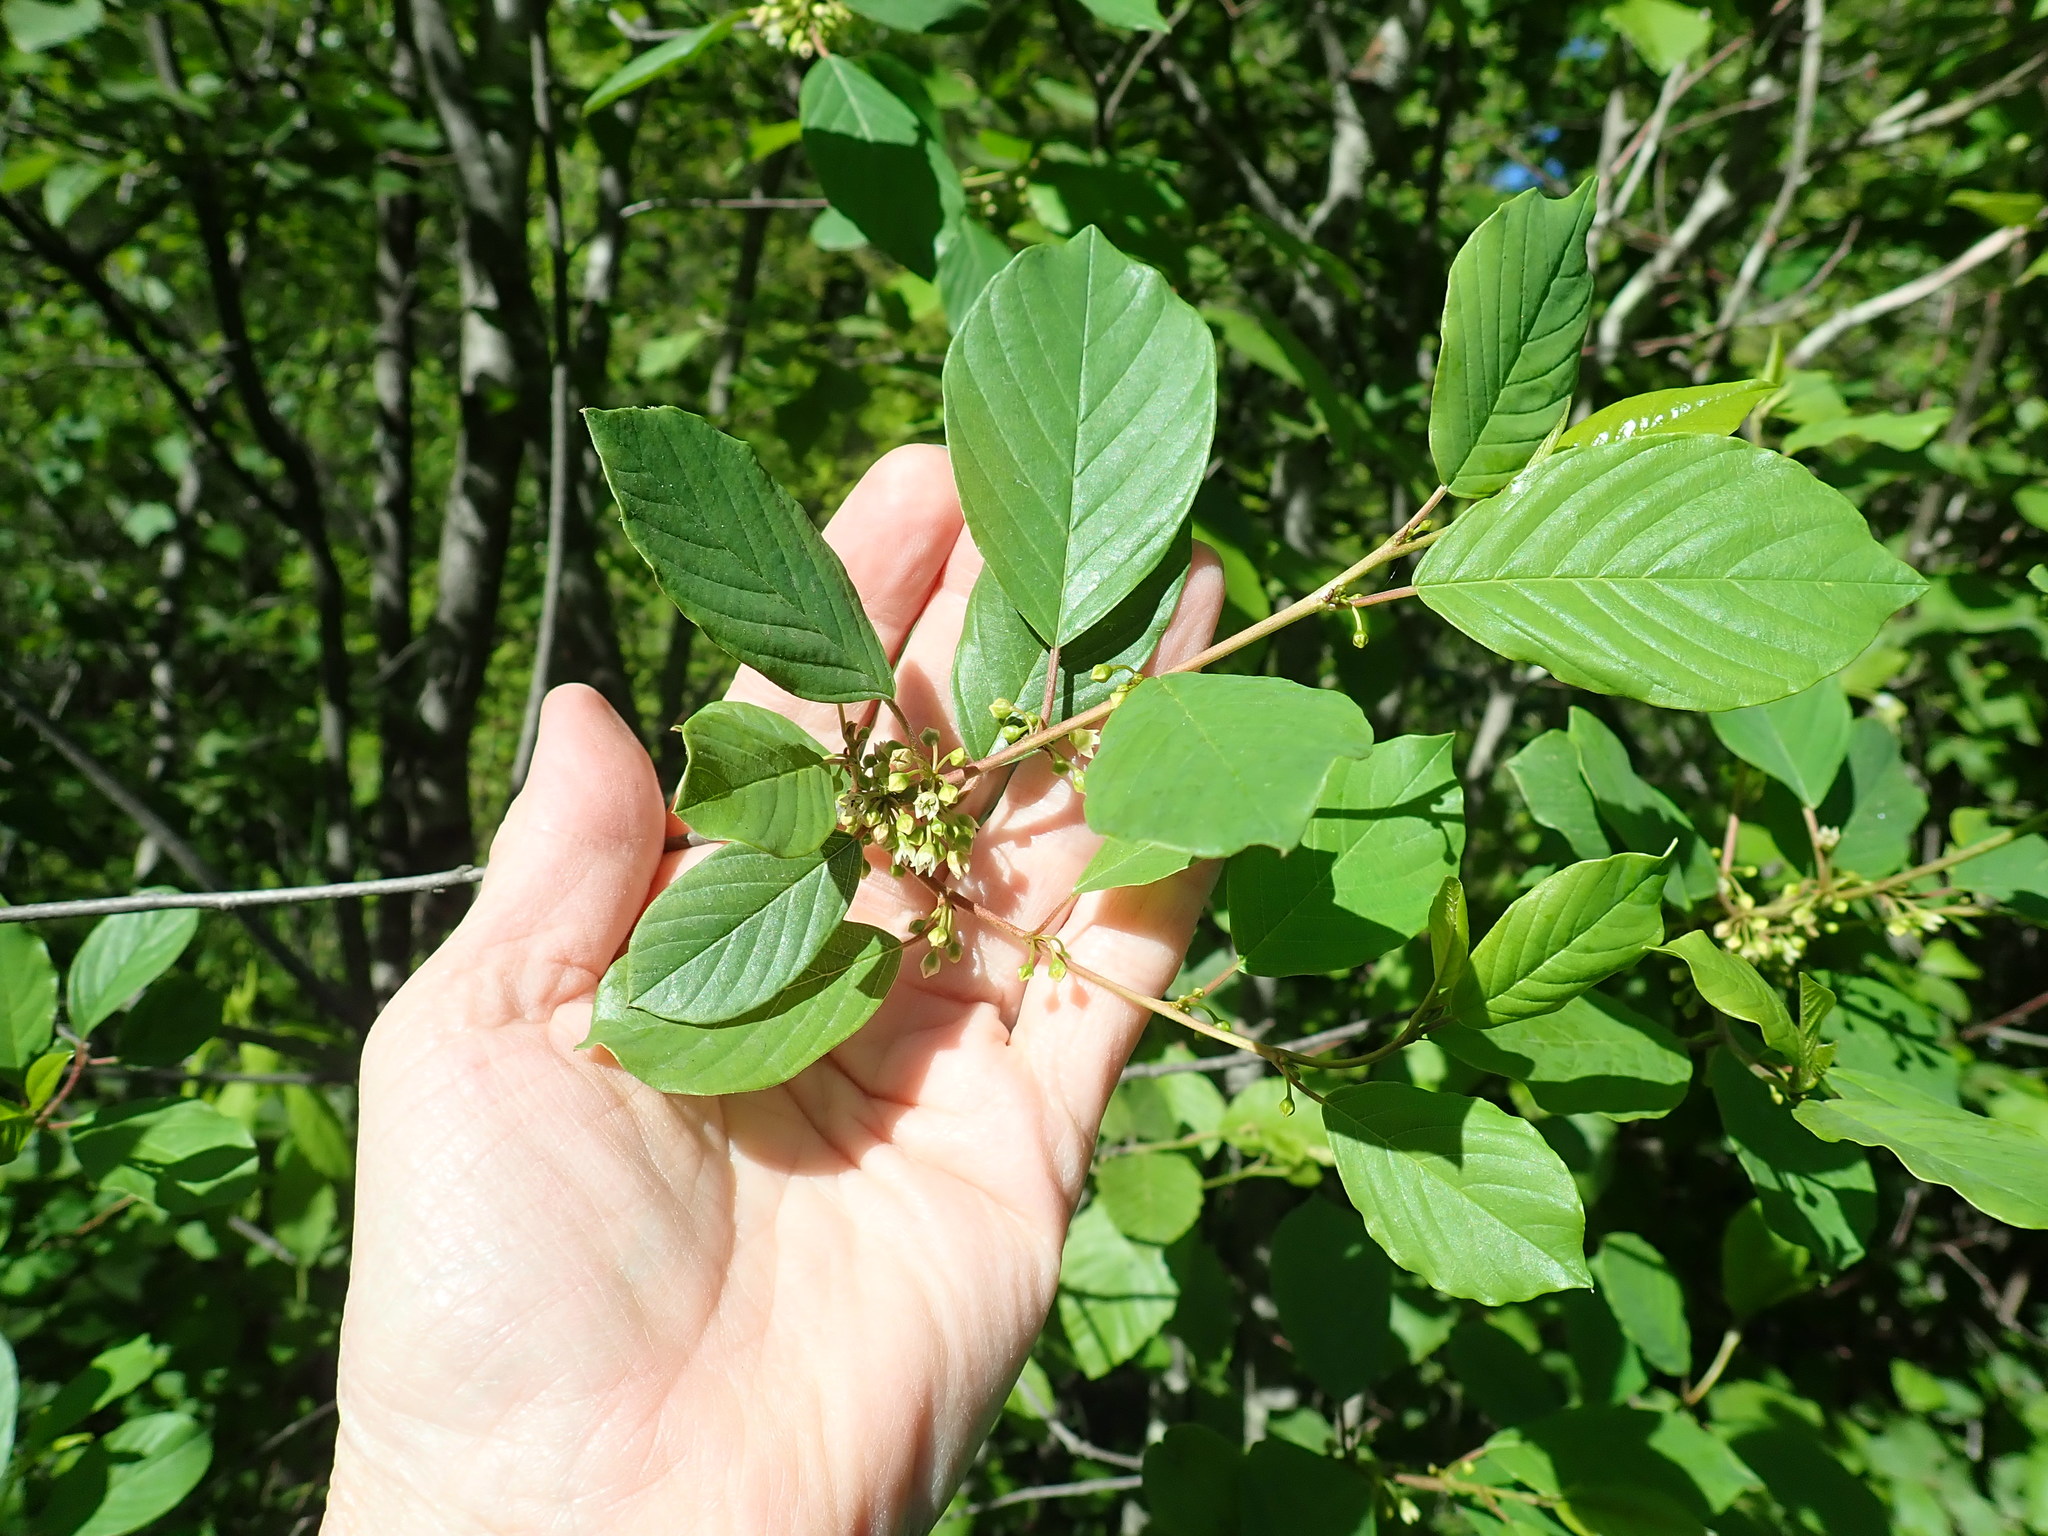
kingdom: Plantae
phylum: Tracheophyta
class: Magnoliopsida
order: Rosales
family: Rhamnaceae
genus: Frangula
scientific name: Frangula alnus
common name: Alder buckthorn
